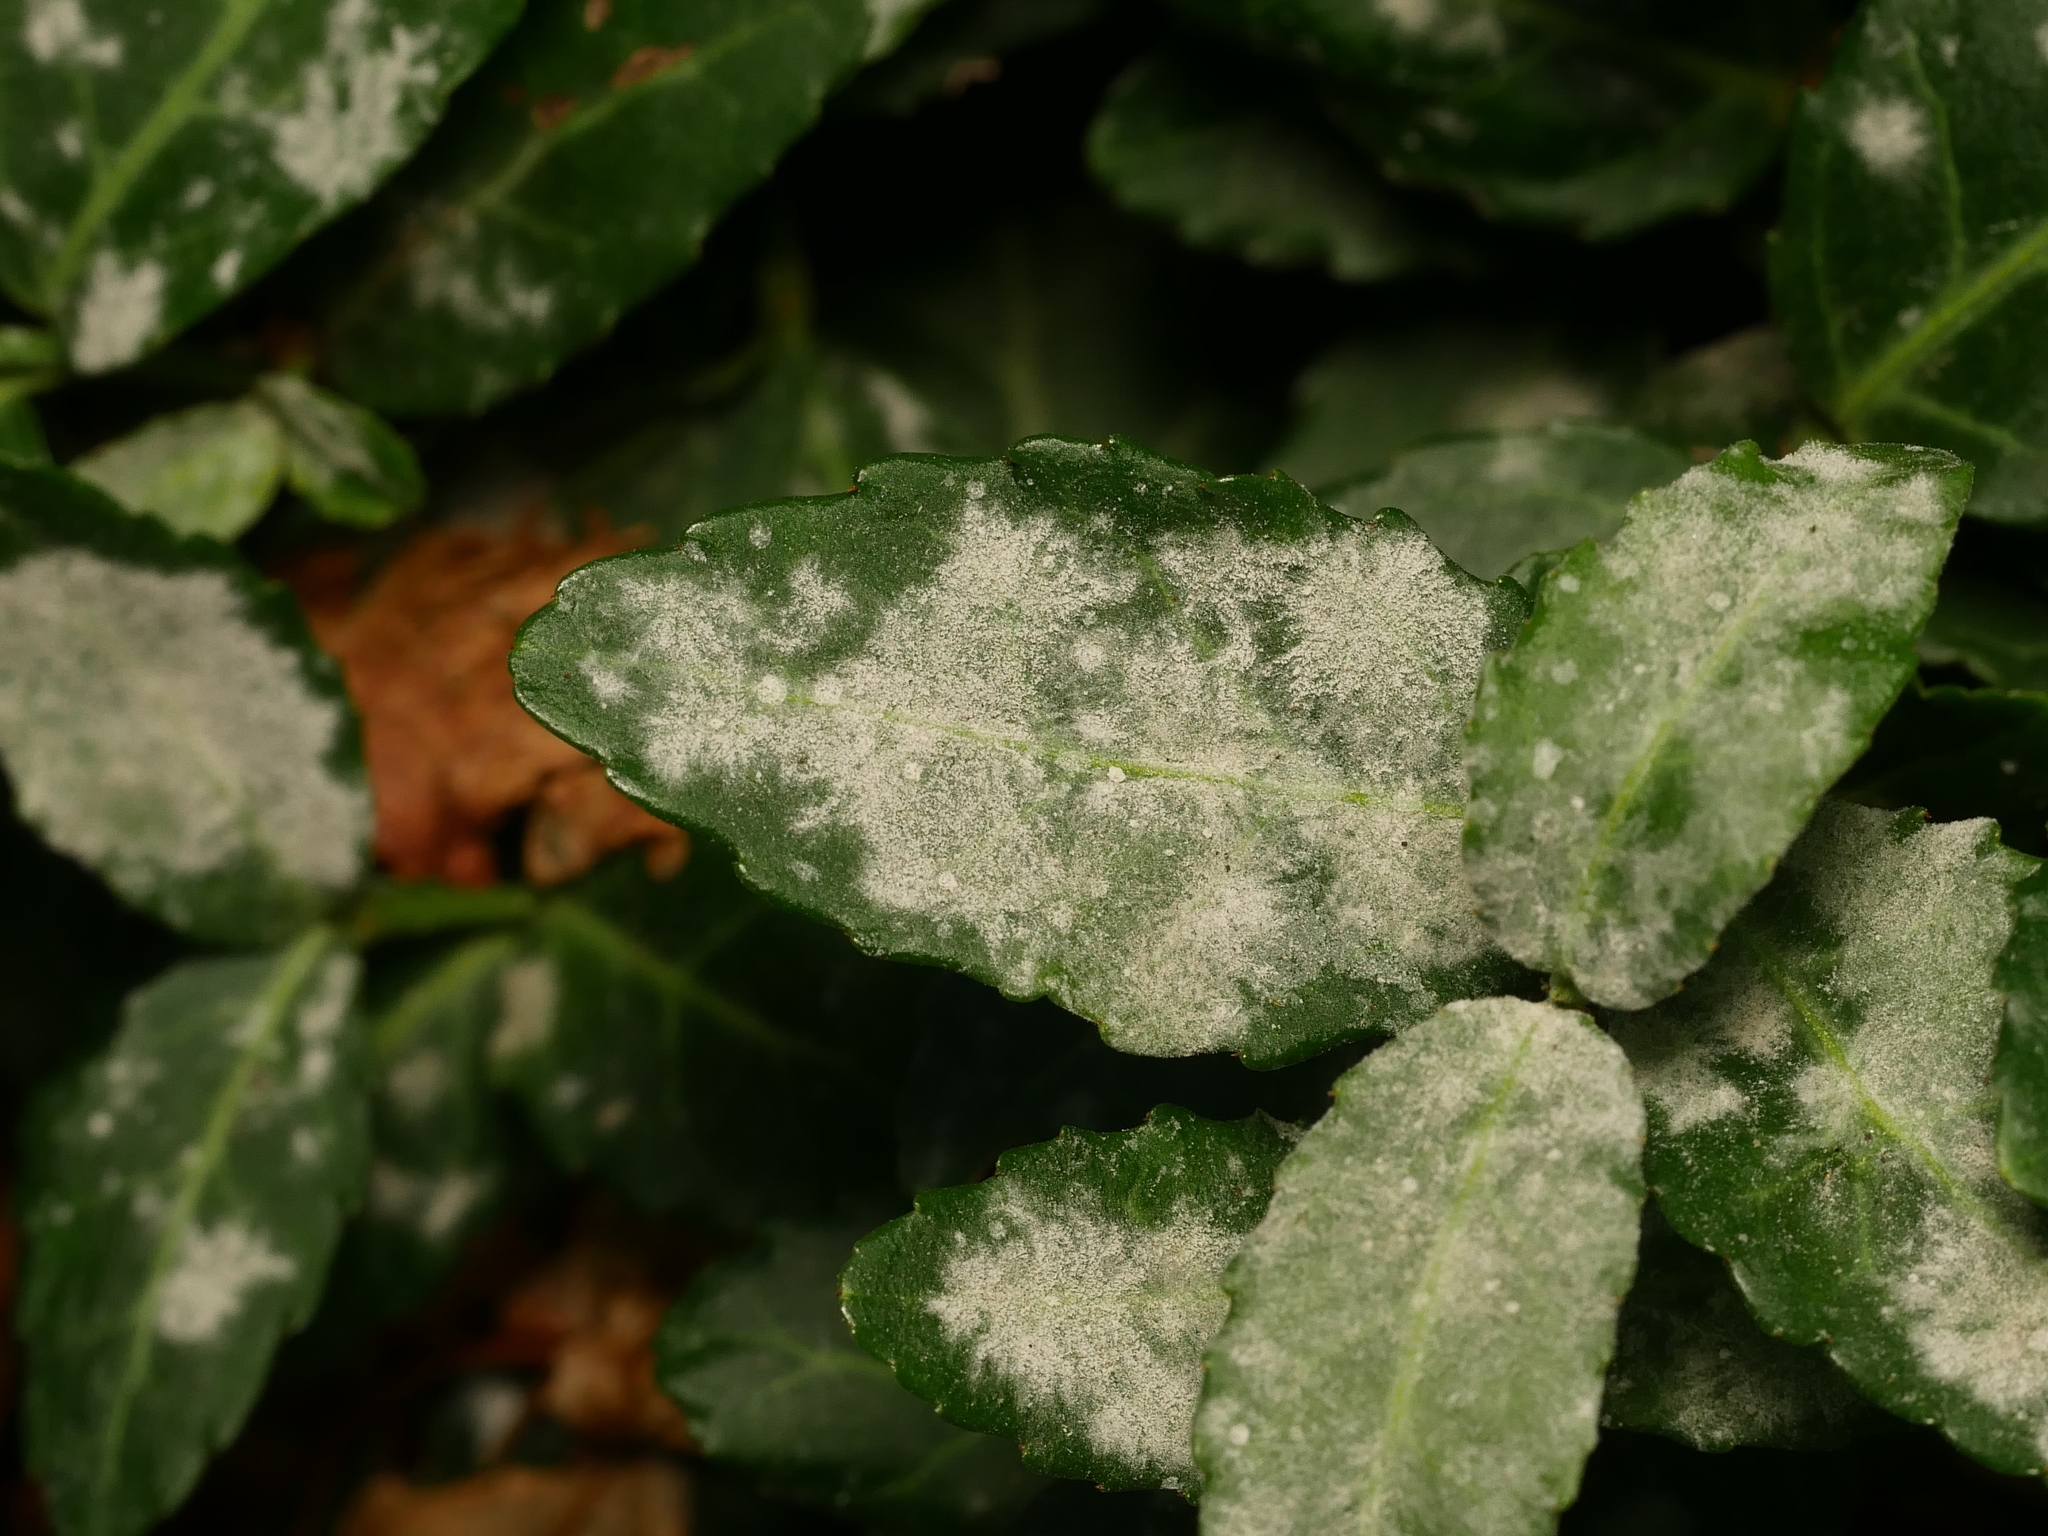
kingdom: Fungi
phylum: Ascomycota
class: Leotiomycetes
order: Helotiales
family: Erysiphaceae
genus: Erysiphe
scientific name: Erysiphe euonymicola
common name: Spindletree mildew
